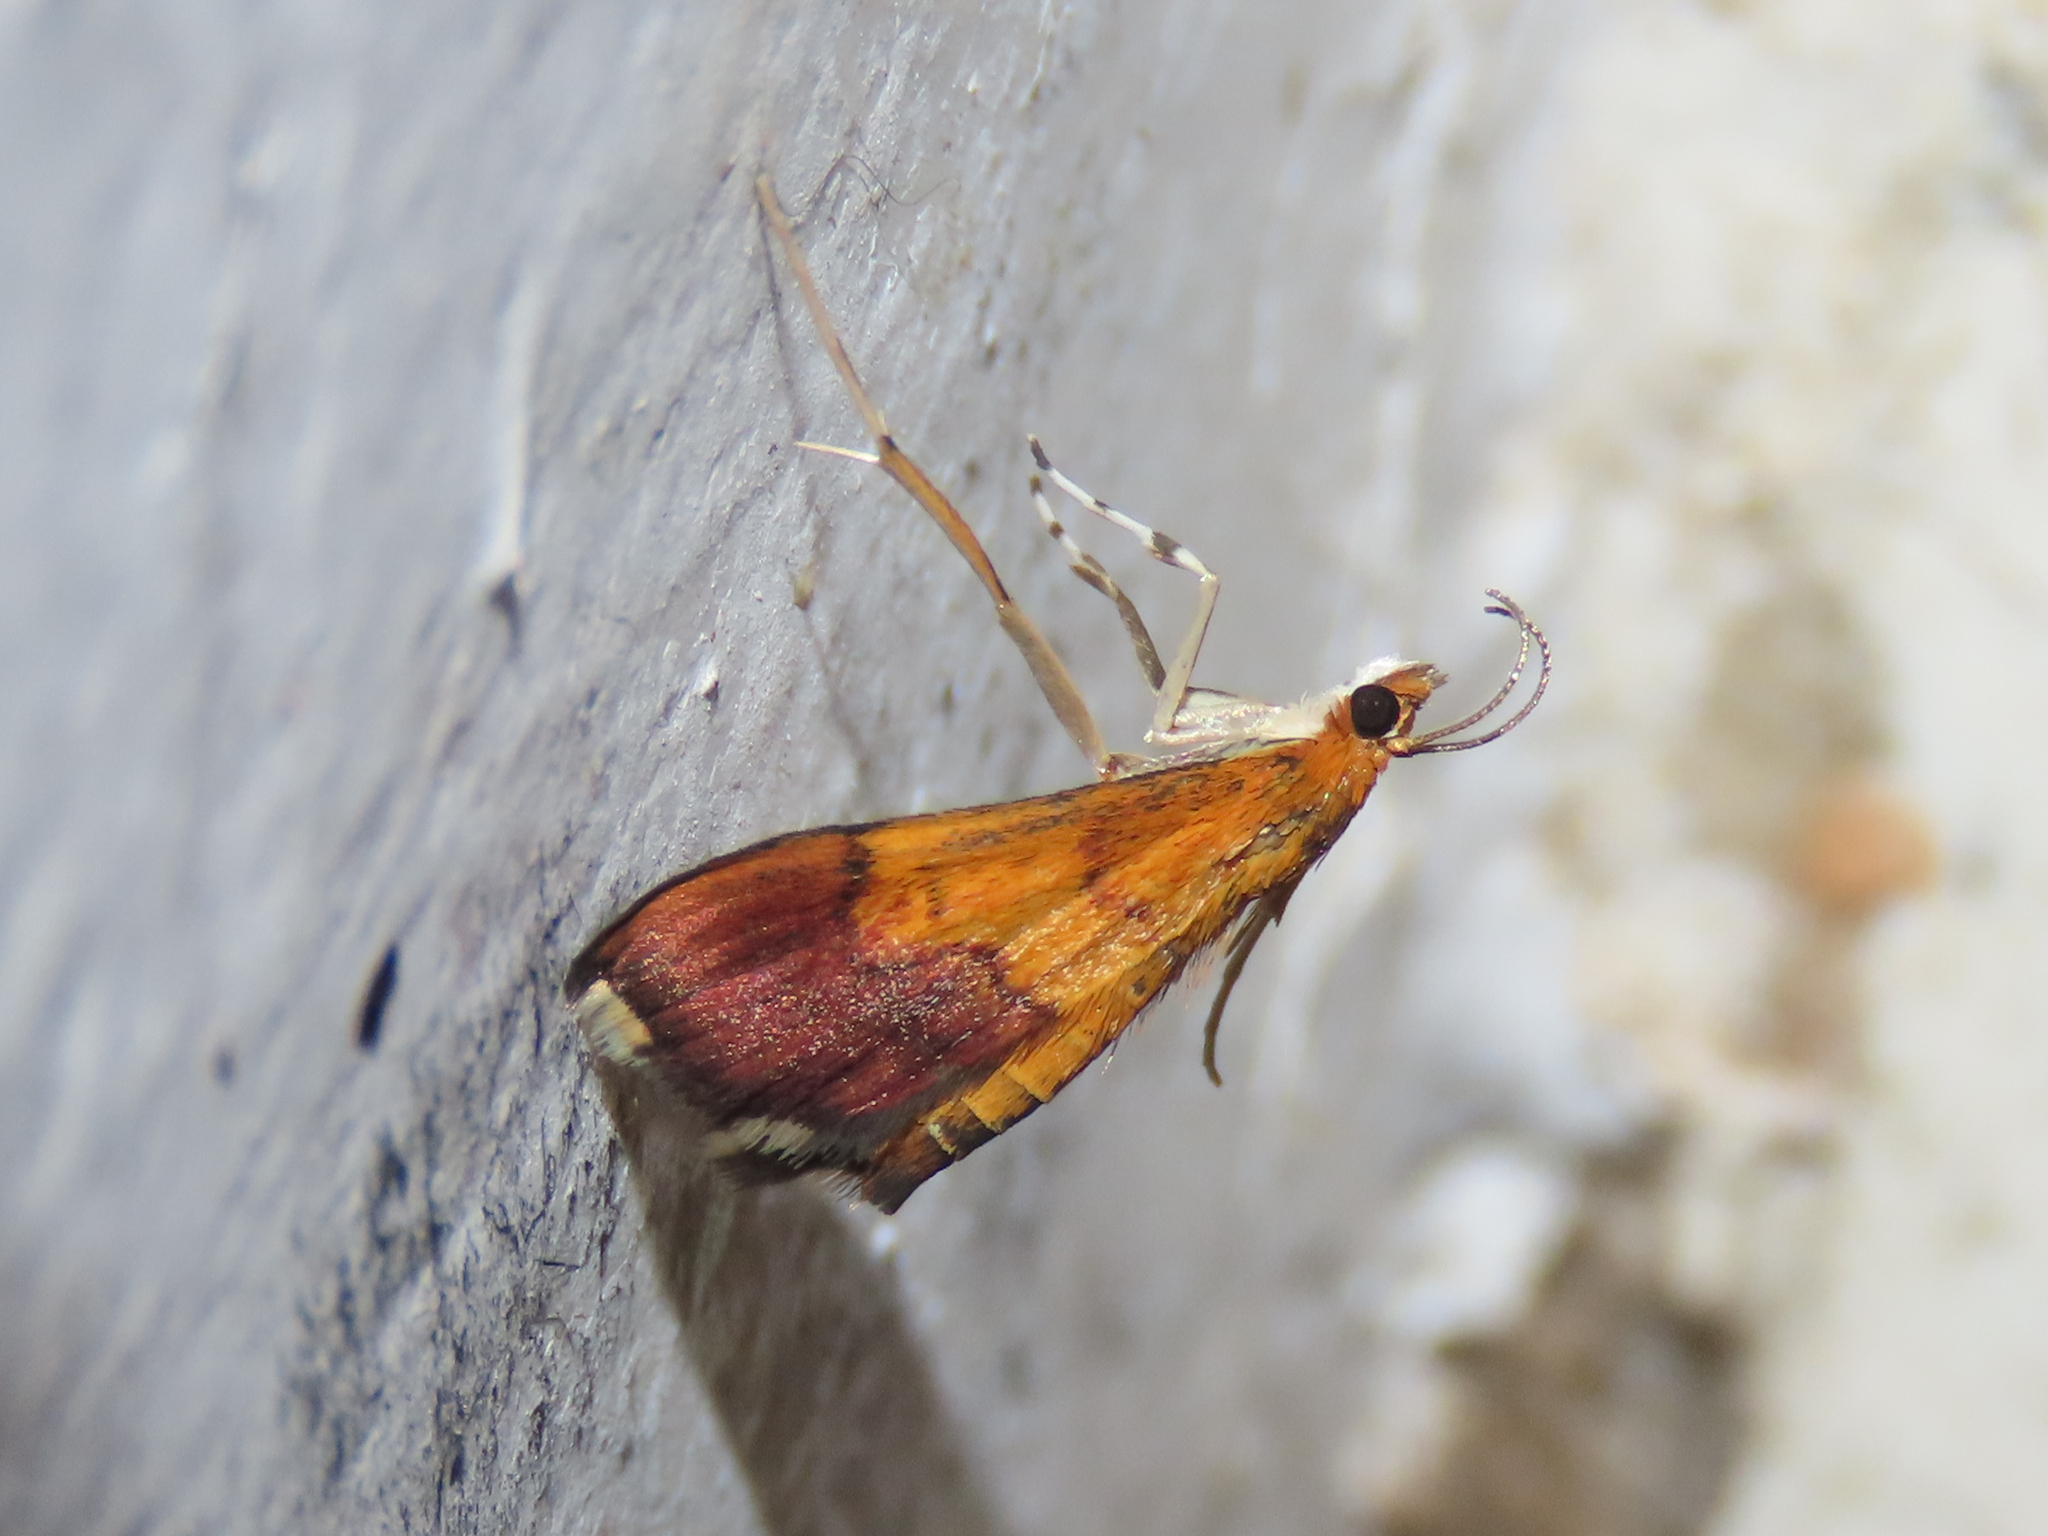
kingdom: Animalia
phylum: Arthropoda
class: Insecta
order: Lepidoptera
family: Crambidae
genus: Pyrausta
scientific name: Pyrausta bicoloralis
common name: Bicolored pyrausta moth
